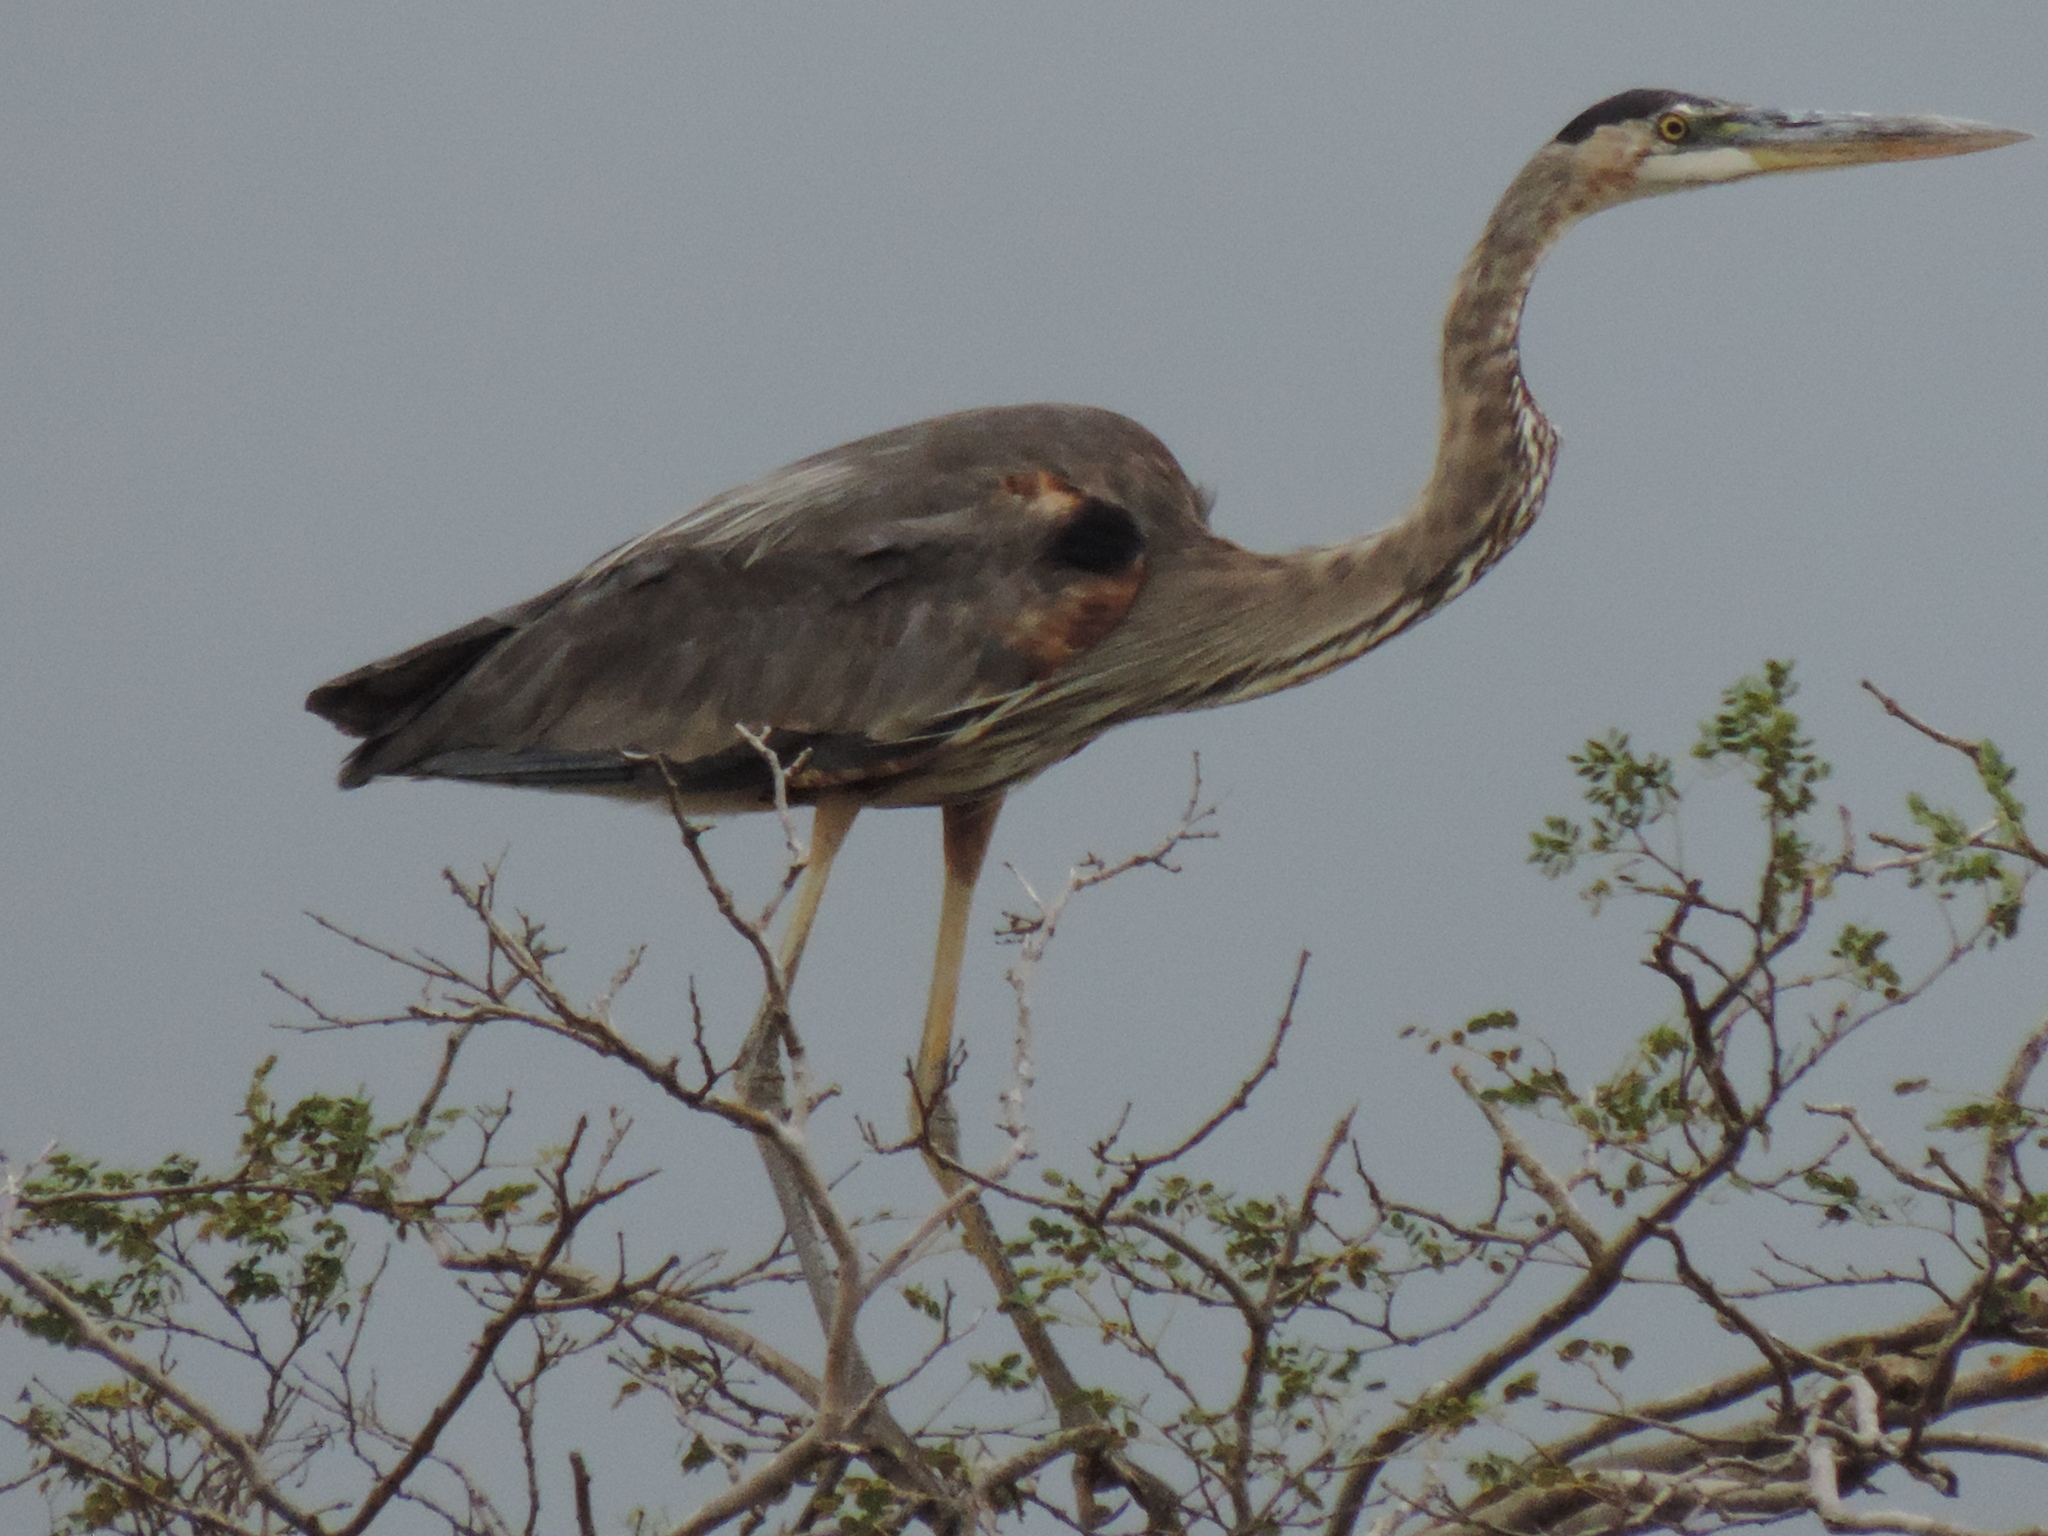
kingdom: Animalia
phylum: Chordata
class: Aves
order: Pelecaniformes
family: Ardeidae
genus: Ardea
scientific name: Ardea herodias
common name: Great blue heron
